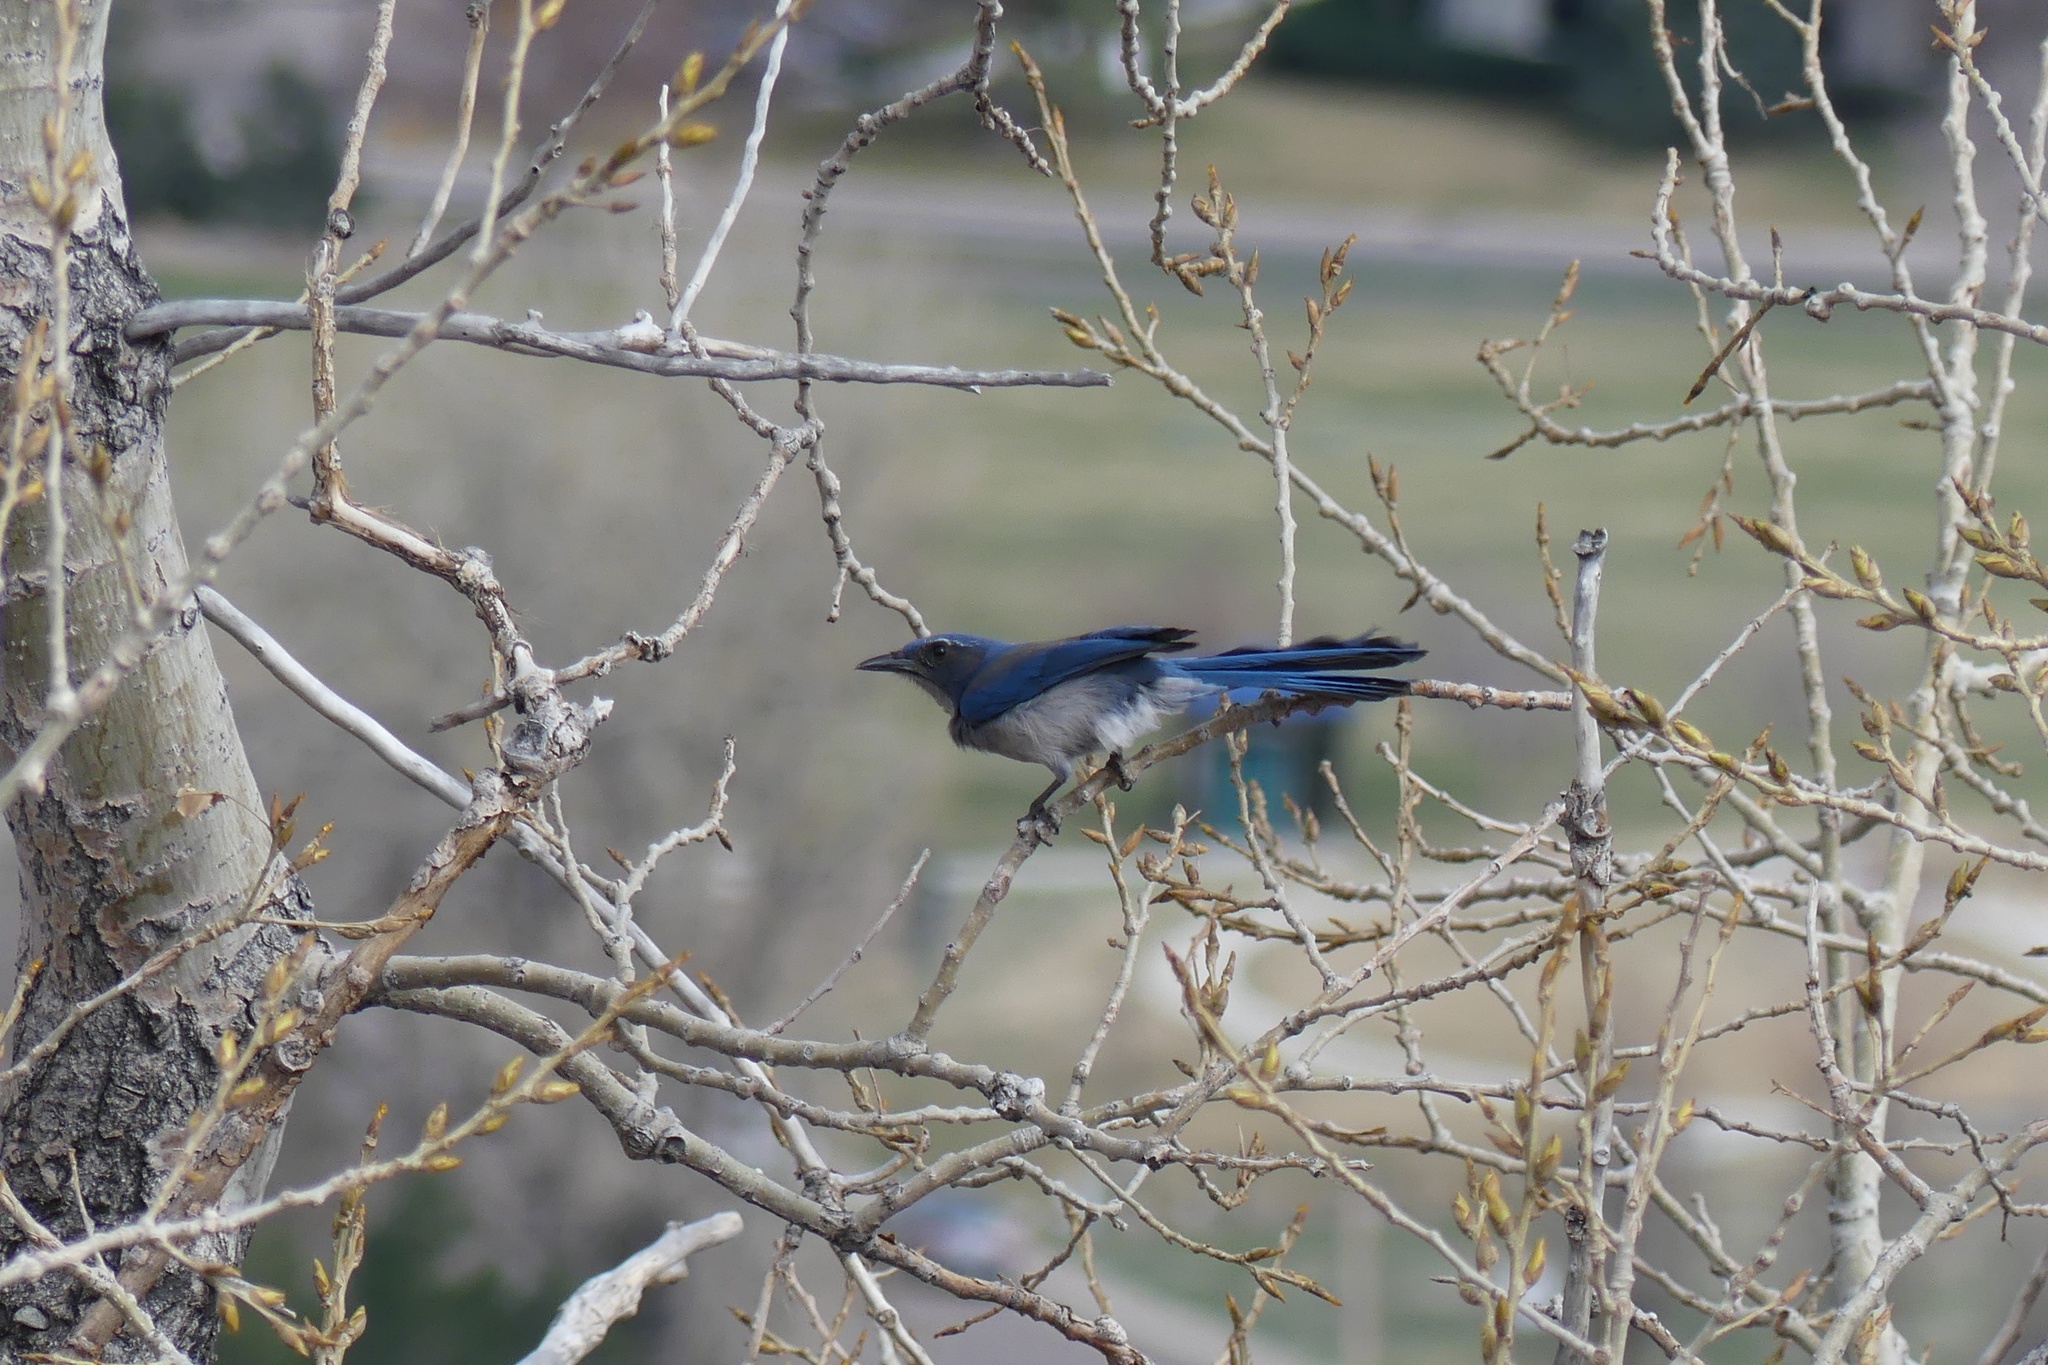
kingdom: Animalia
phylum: Chordata
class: Aves
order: Passeriformes
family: Corvidae
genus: Aphelocoma
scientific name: Aphelocoma woodhouseii
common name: Woodhouse's scrub-jay
